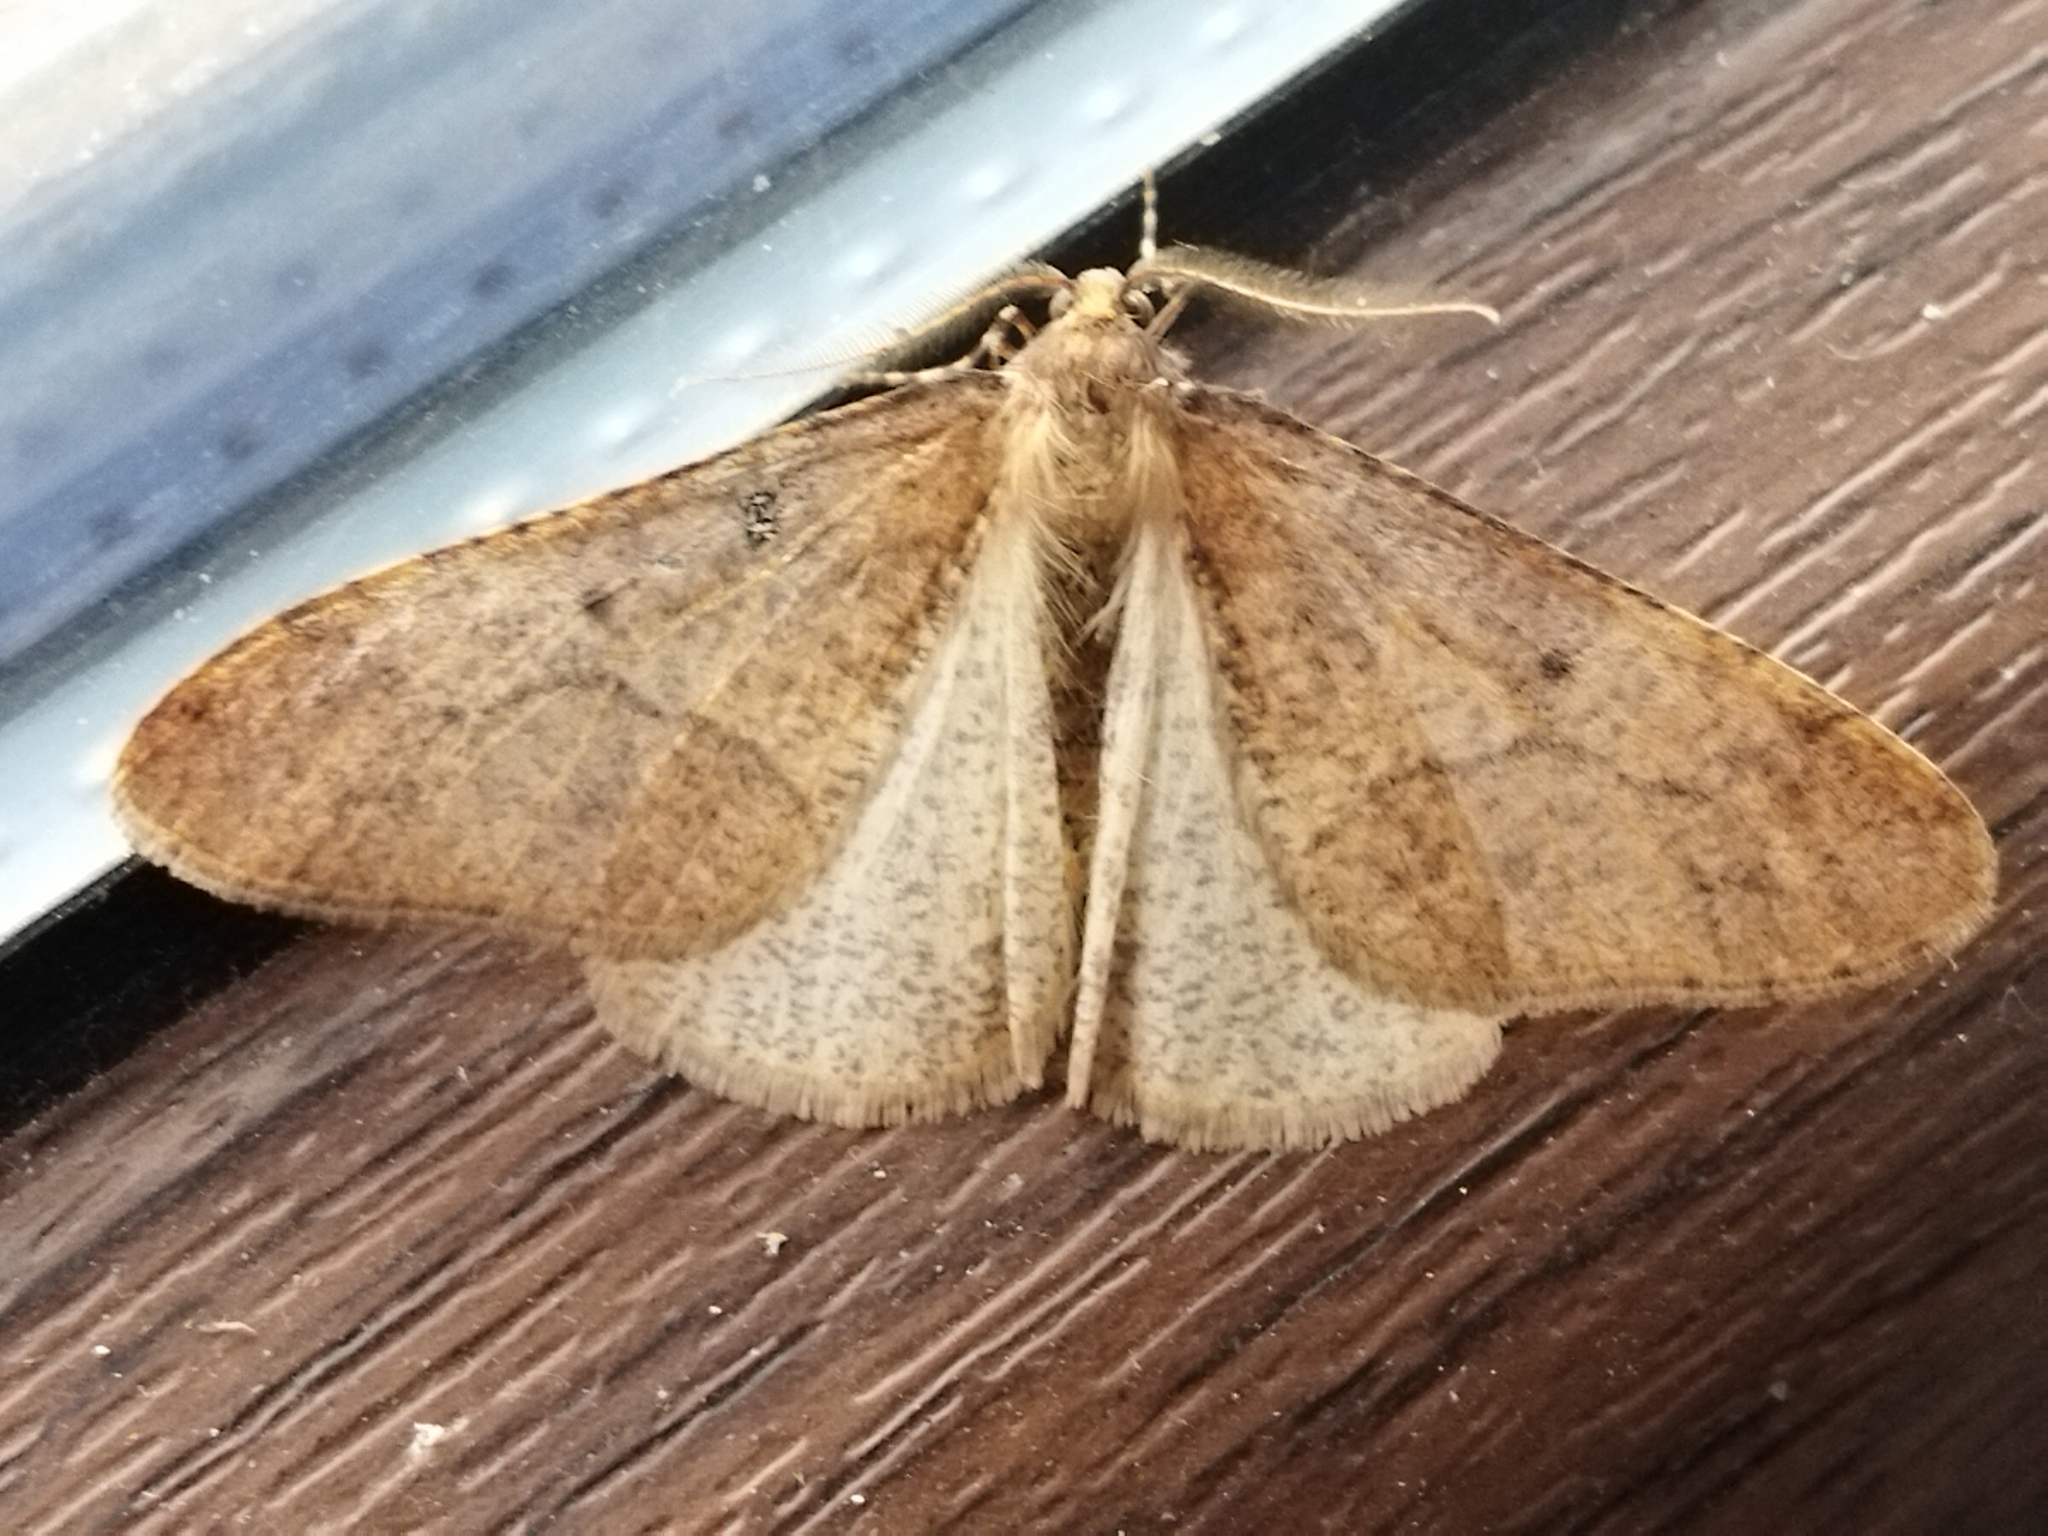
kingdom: Animalia
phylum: Arthropoda
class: Insecta
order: Lepidoptera
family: Geometridae
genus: Erannis
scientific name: Erannis defoliaria
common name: Mottled umber
